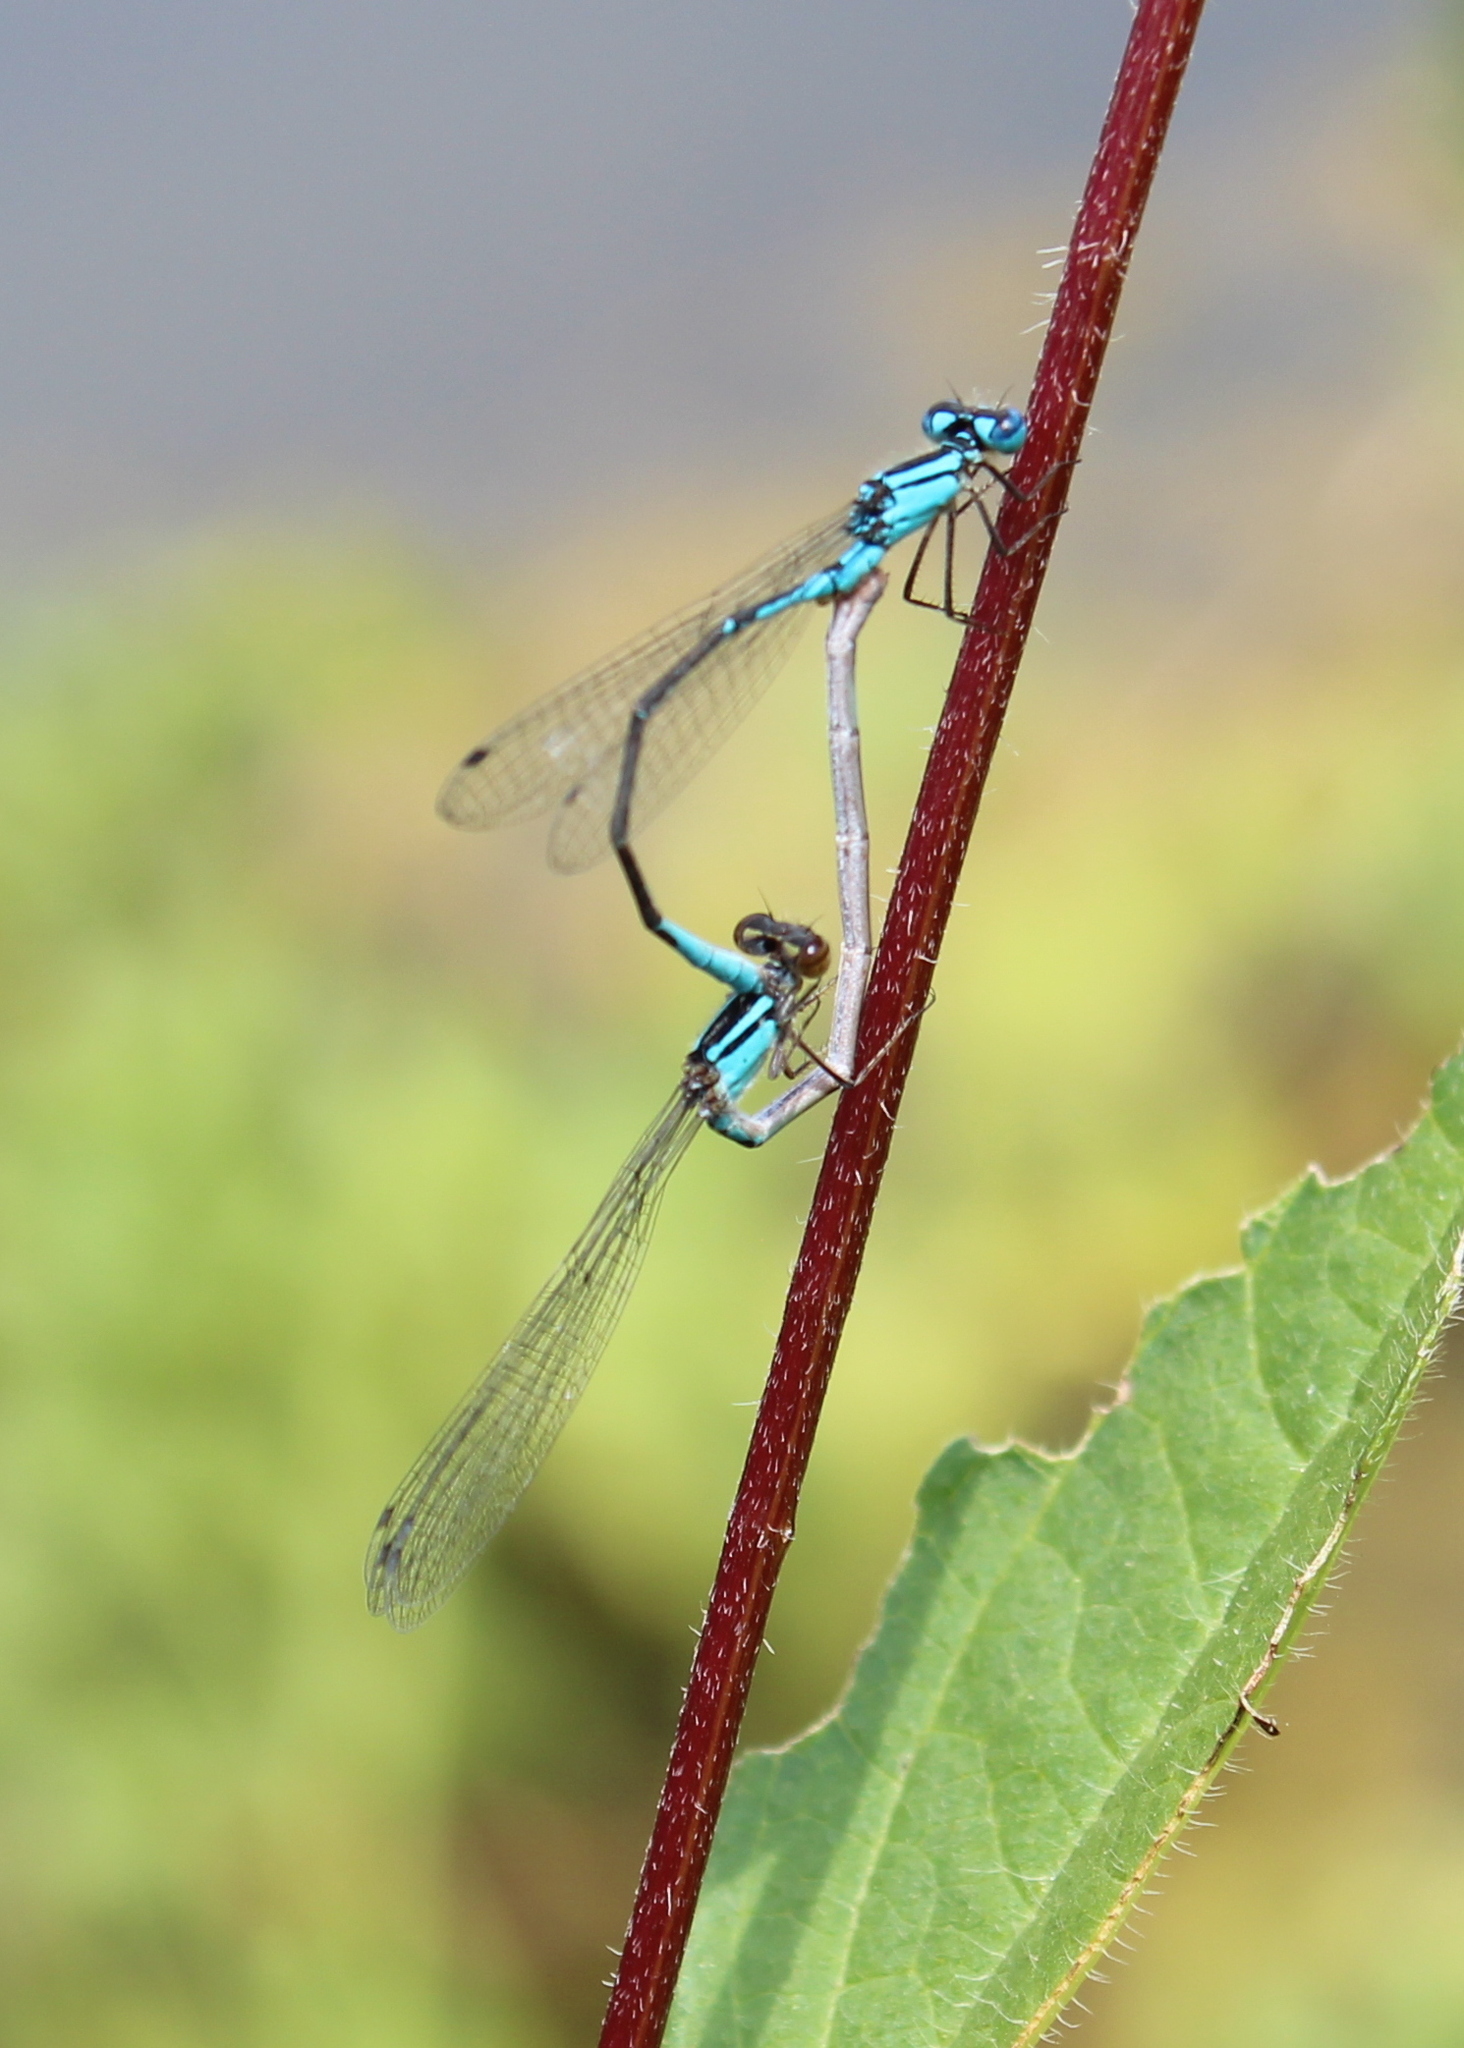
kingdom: Animalia
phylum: Arthropoda
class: Insecta
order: Odonata
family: Coenagrionidae
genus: Enallagma
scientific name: Enallagma aspersum
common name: Azure bluet
